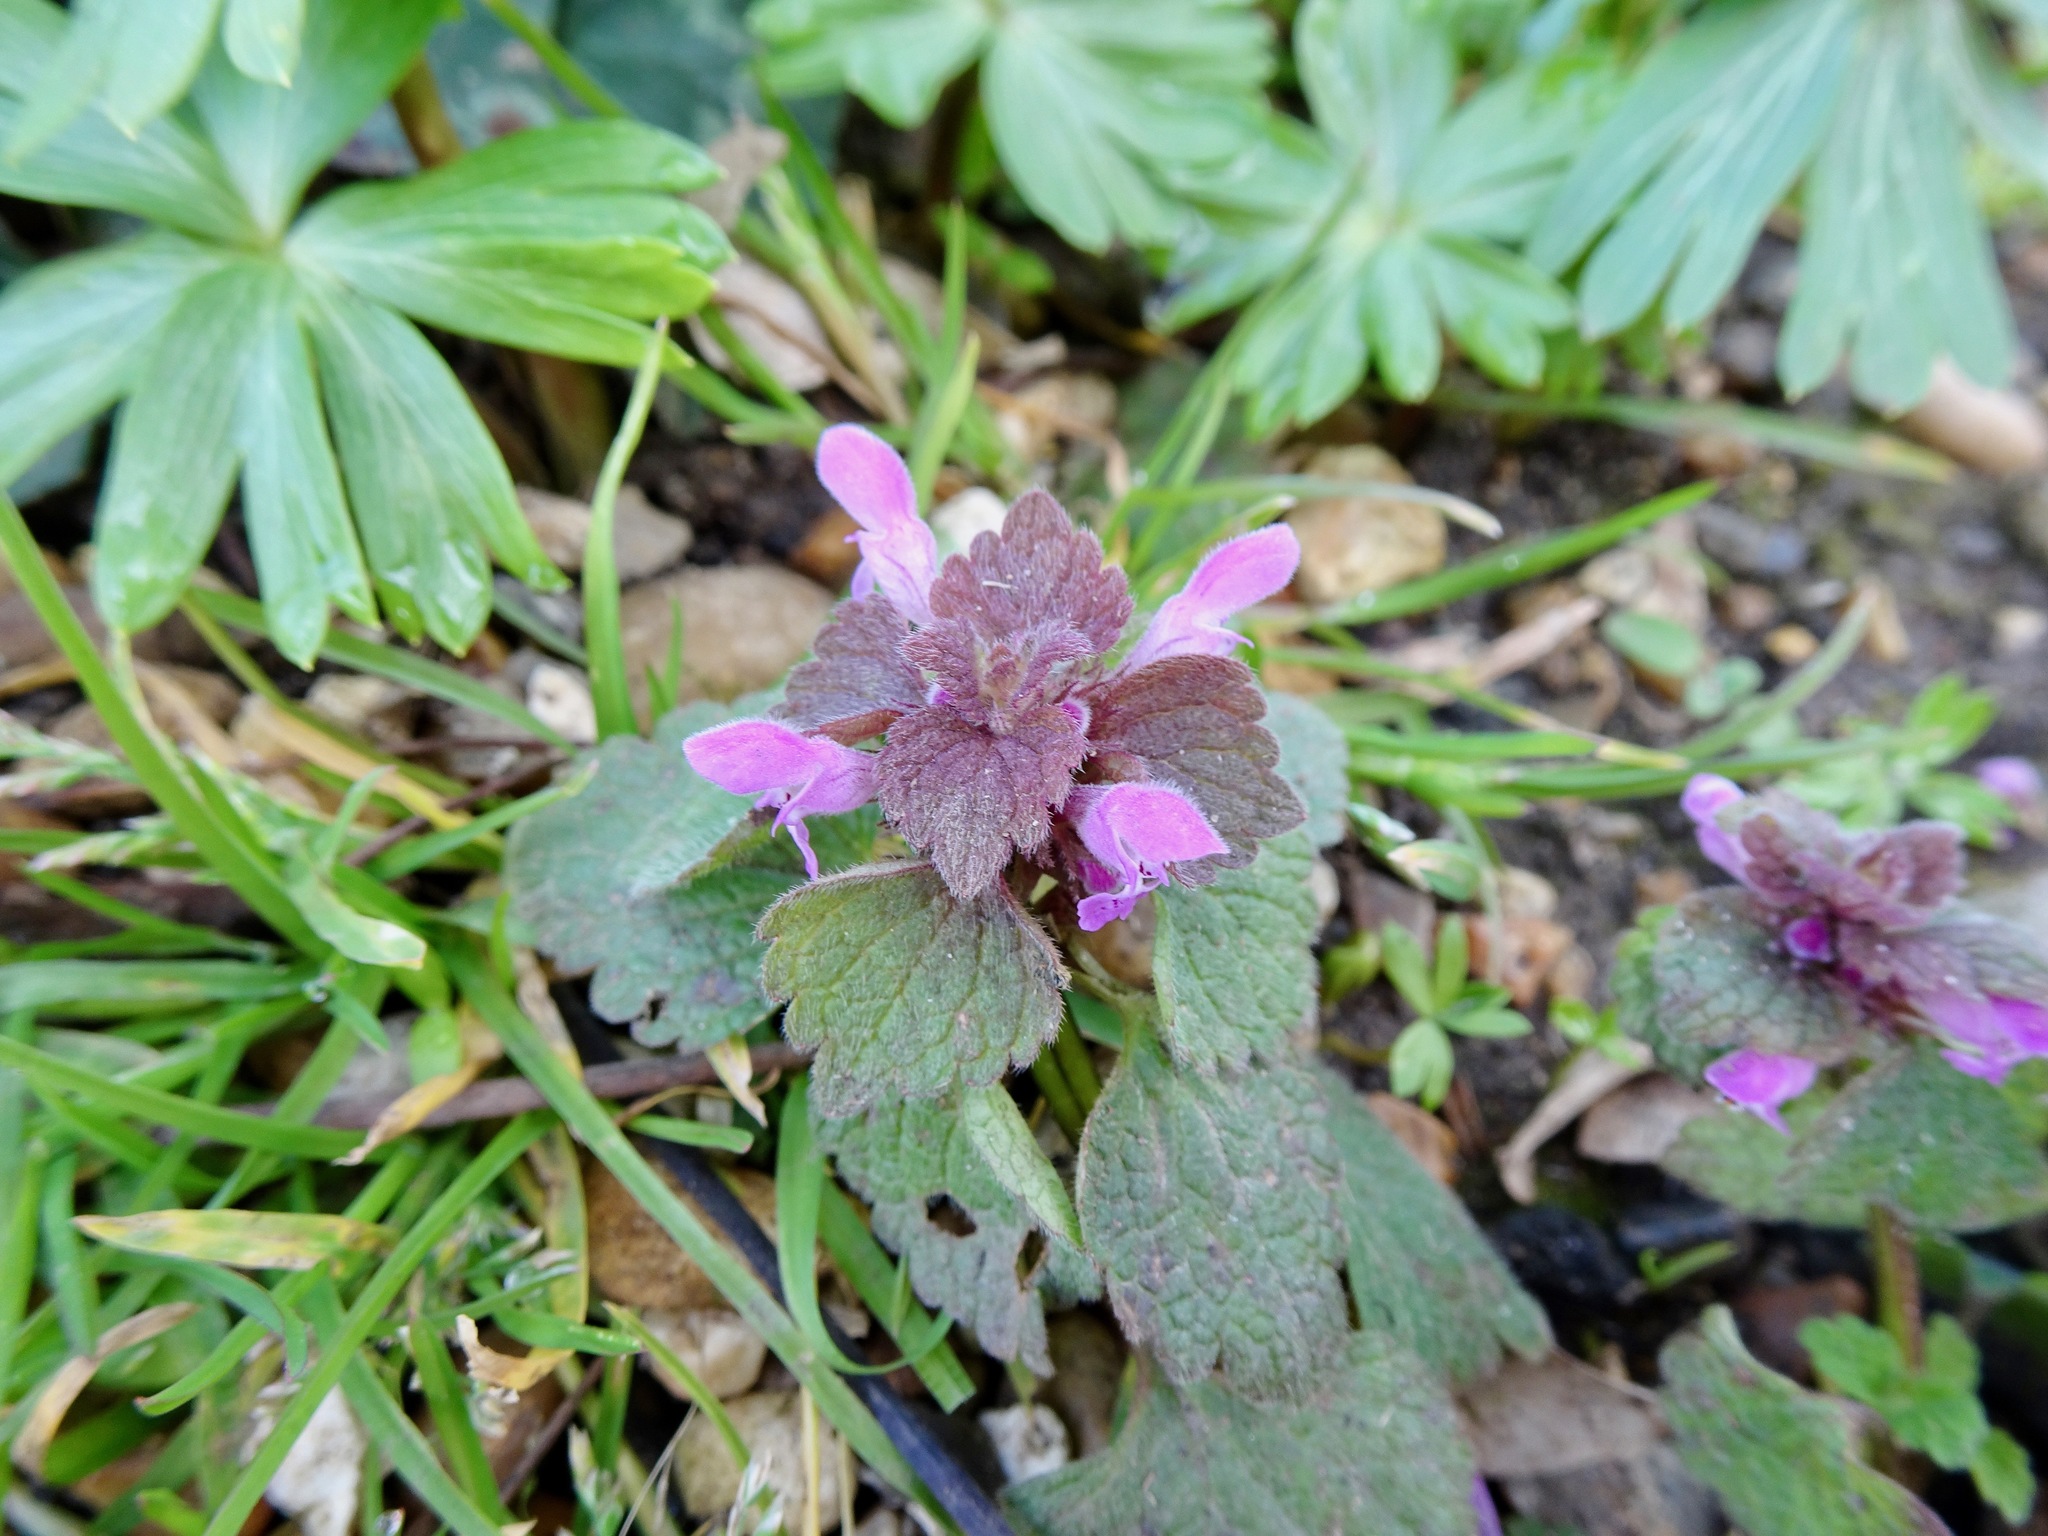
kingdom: Plantae
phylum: Tracheophyta
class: Magnoliopsida
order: Lamiales
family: Lamiaceae
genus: Lamium
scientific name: Lamium purpureum
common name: Red dead-nettle
